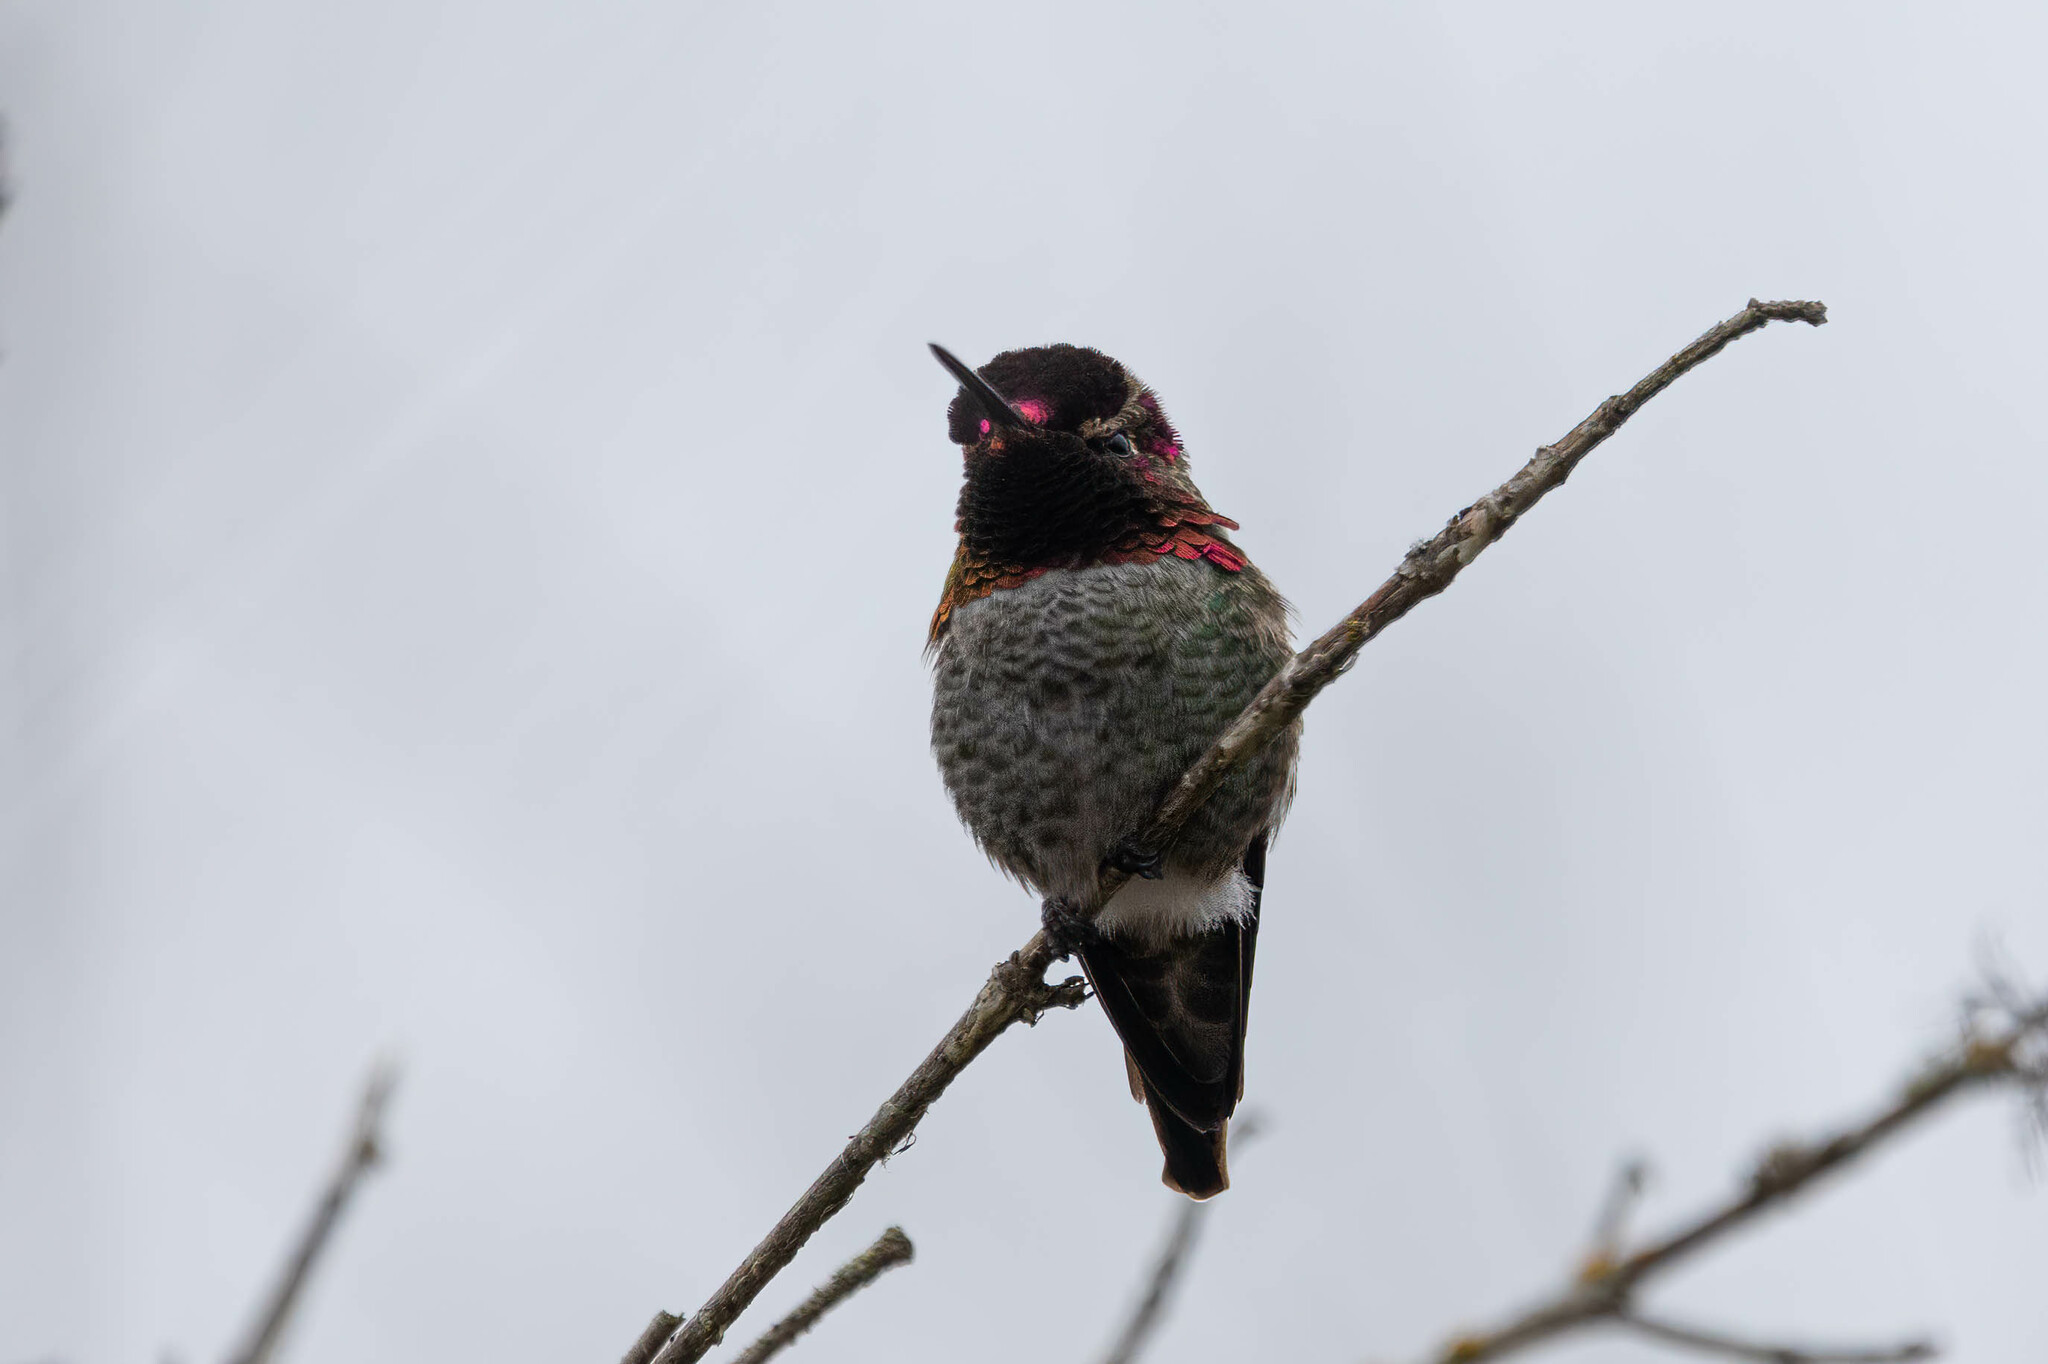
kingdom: Animalia
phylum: Chordata
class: Aves
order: Apodiformes
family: Trochilidae
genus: Calypte
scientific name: Calypte anna
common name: Anna's hummingbird
